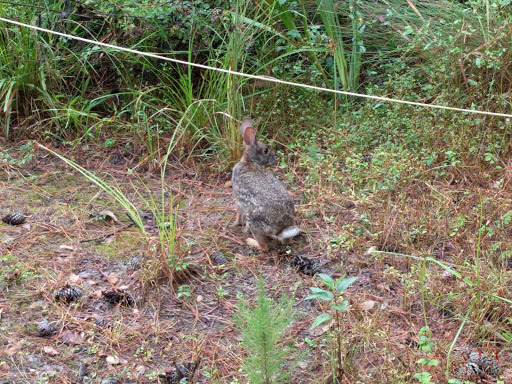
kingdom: Animalia
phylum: Chordata
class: Mammalia
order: Lagomorpha
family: Leporidae
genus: Sylvilagus
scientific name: Sylvilagus aquaticus
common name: Swamp rabbit
